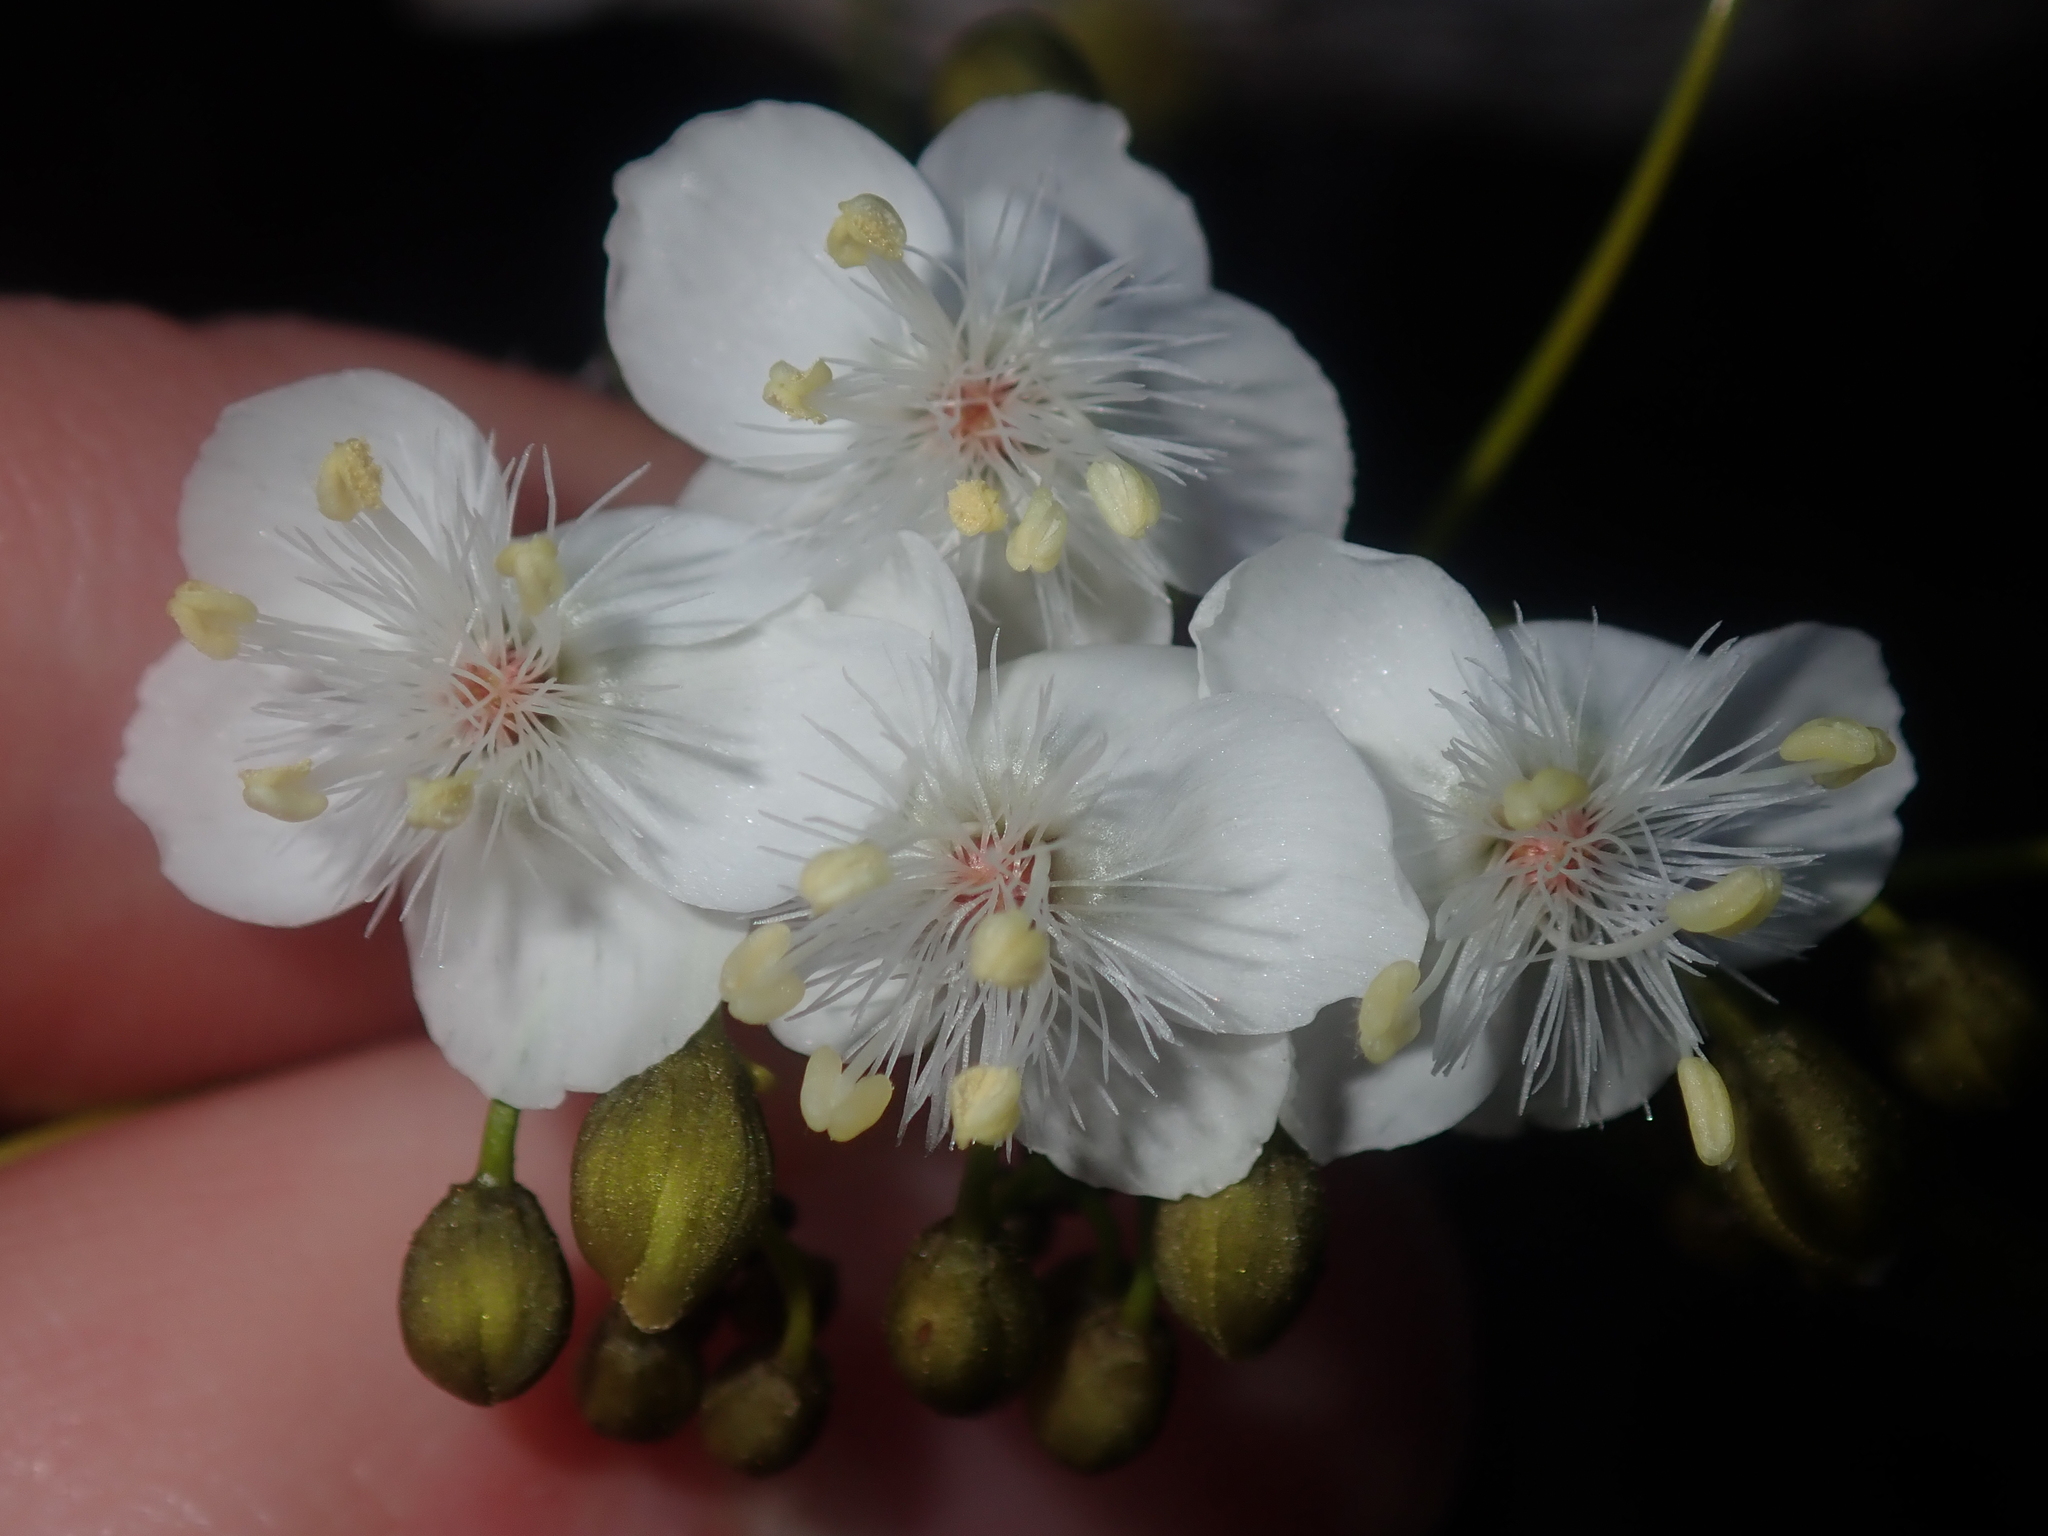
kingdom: Plantae
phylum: Tracheophyta
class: Magnoliopsida
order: Caryophyllales
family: Droseraceae
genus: Drosera
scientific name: Drosera pallida
